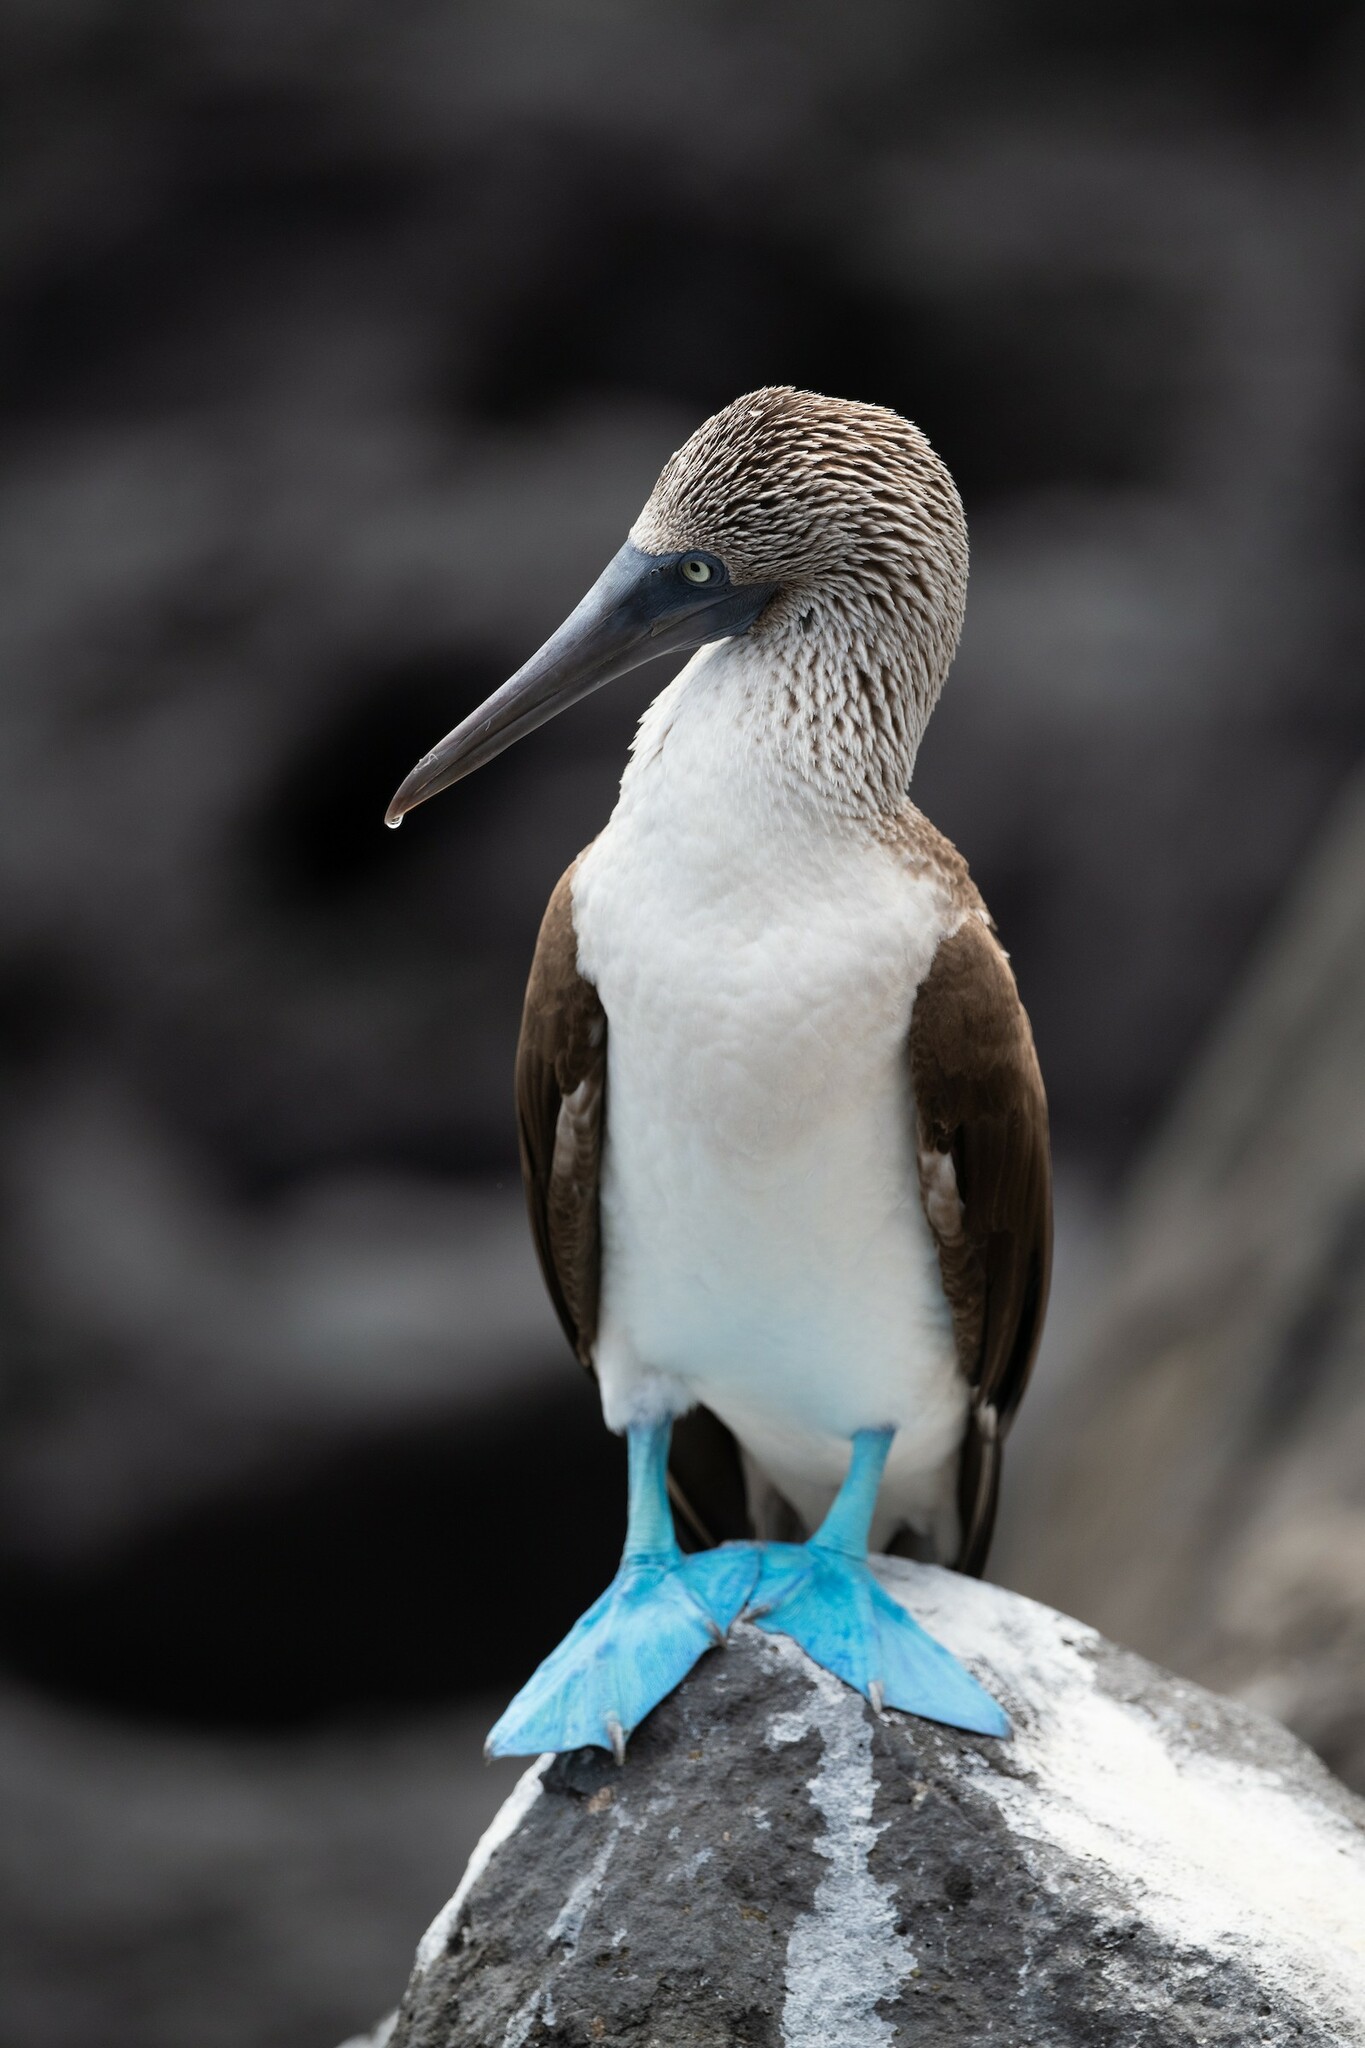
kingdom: Animalia
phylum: Chordata
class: Aves
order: Suliformes
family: Sulidae
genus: Sula
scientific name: Sula nebouxii
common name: Blue-footed booby
